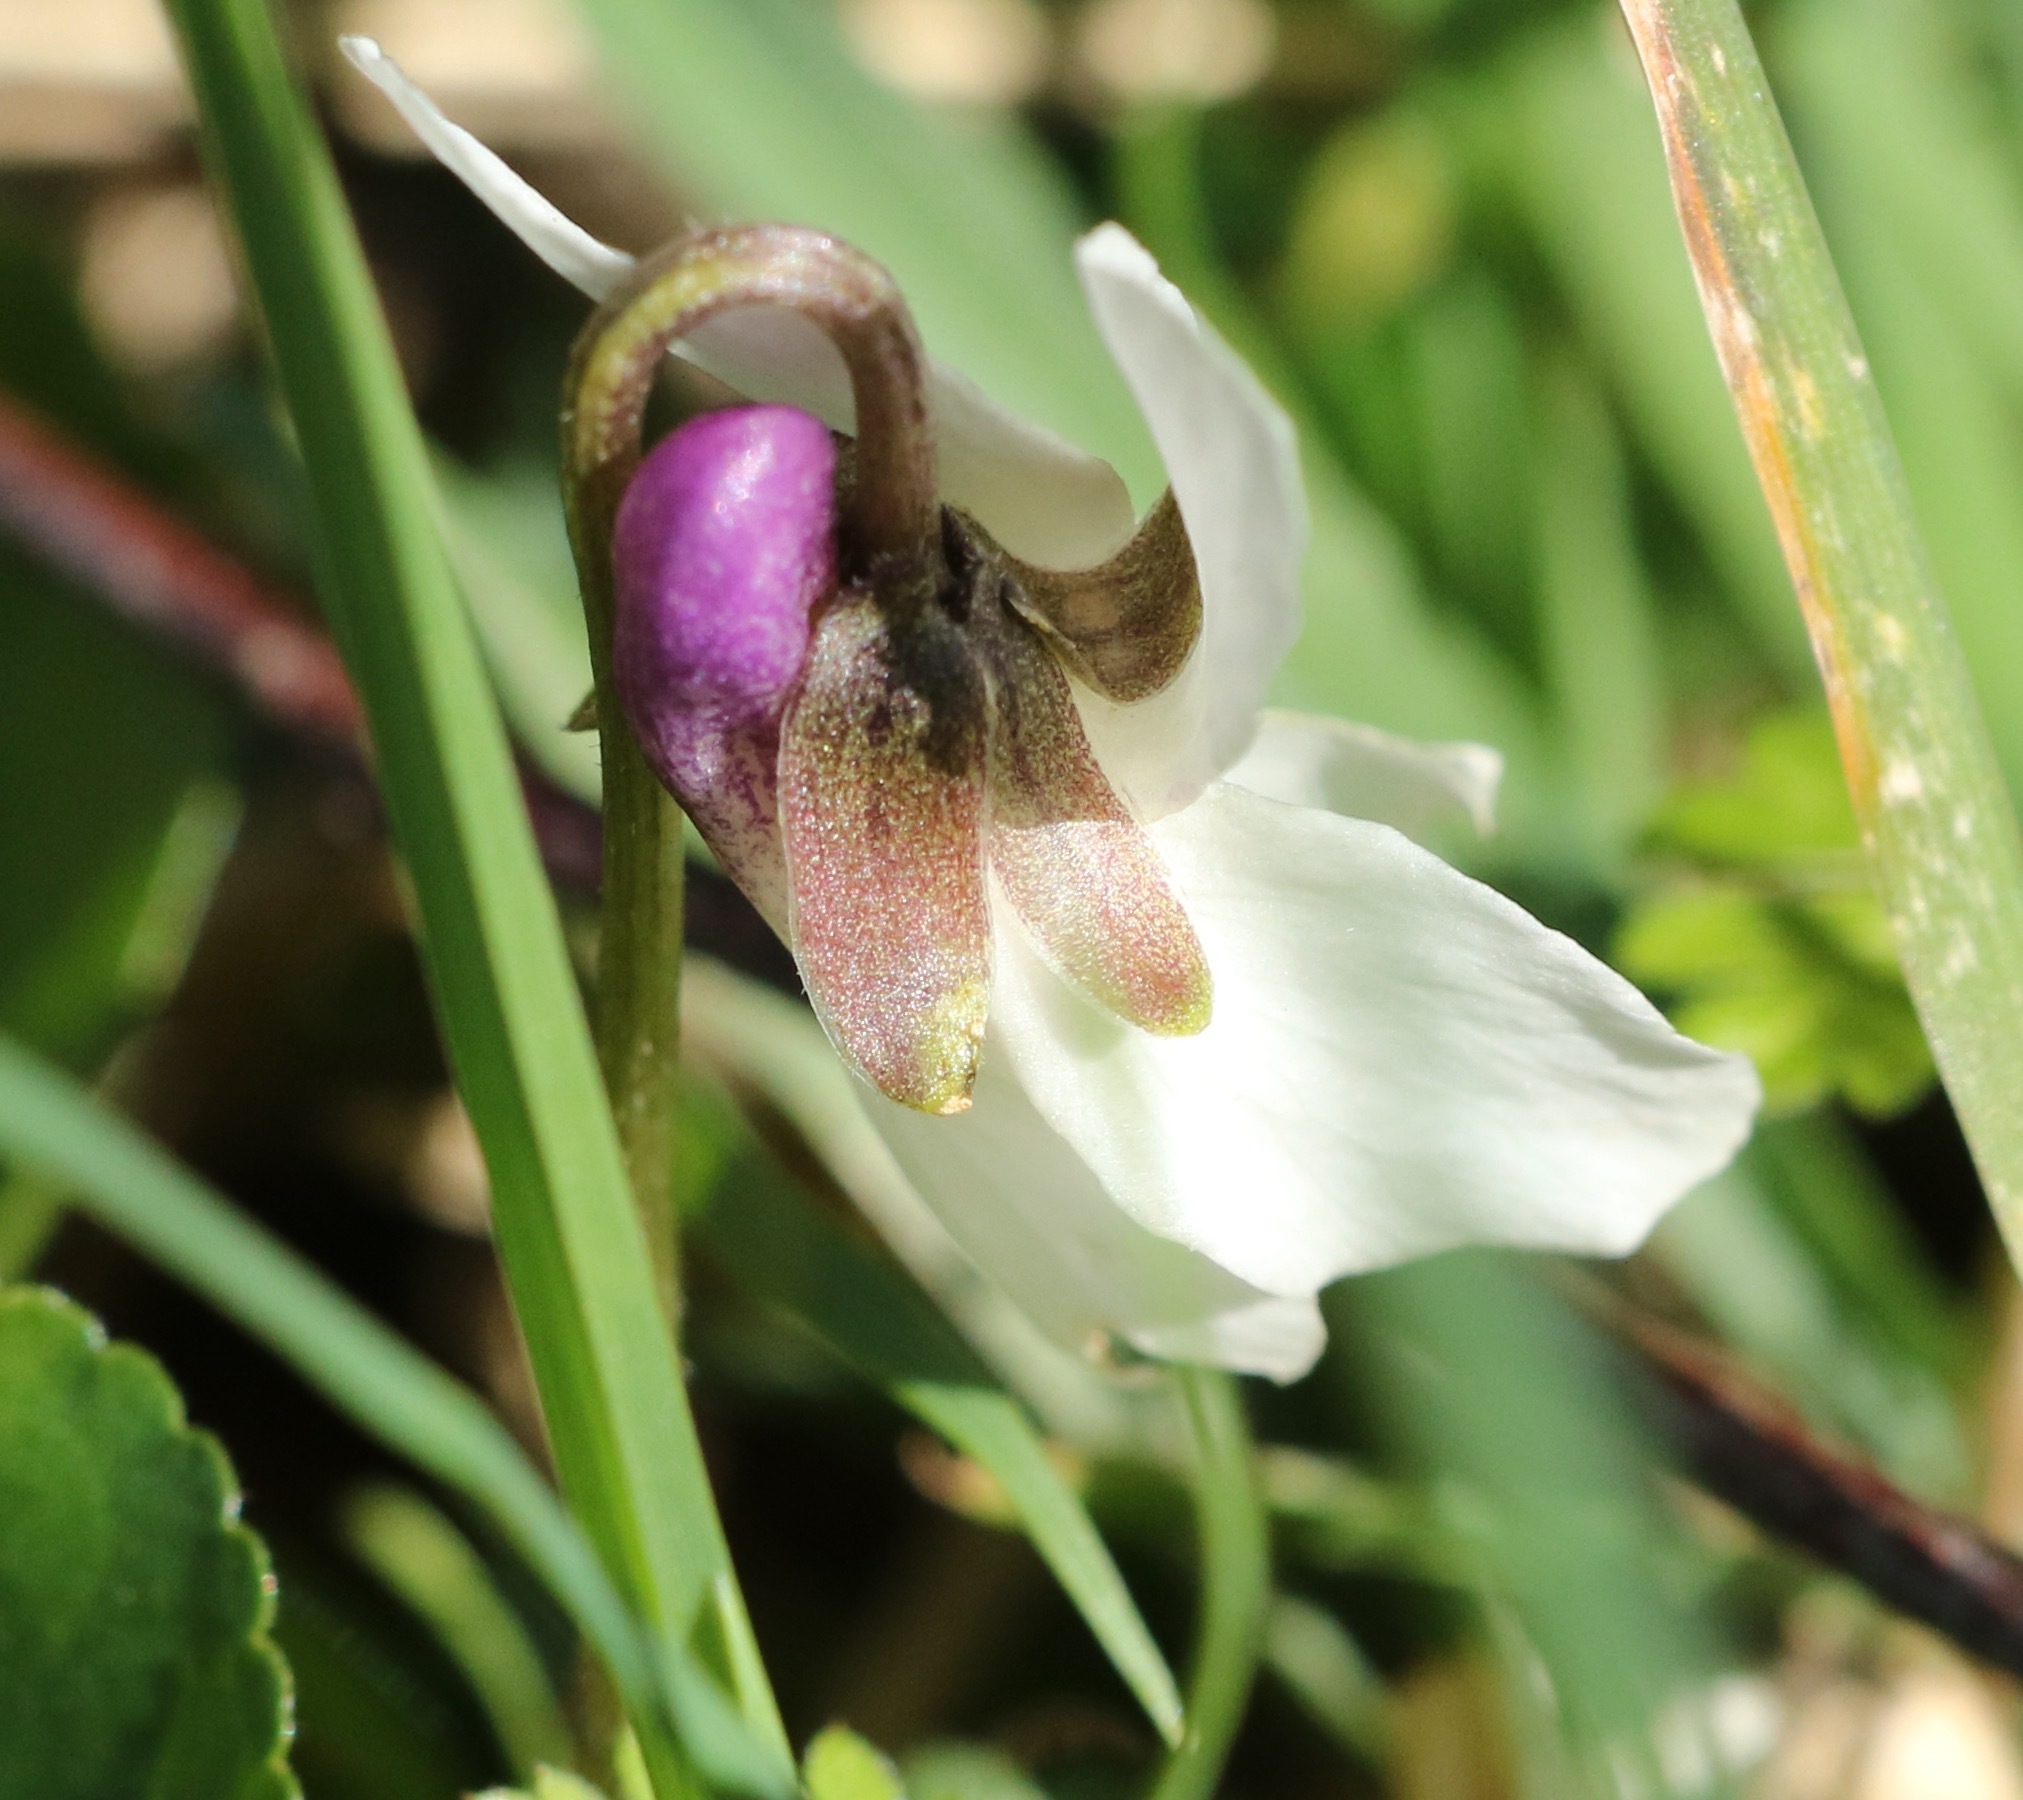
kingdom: Plantae
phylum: Tracheophyta
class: Magnoliopsida
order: Malpighiales
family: Violaceae
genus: Viola
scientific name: Viola odorata
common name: Sweet violet
